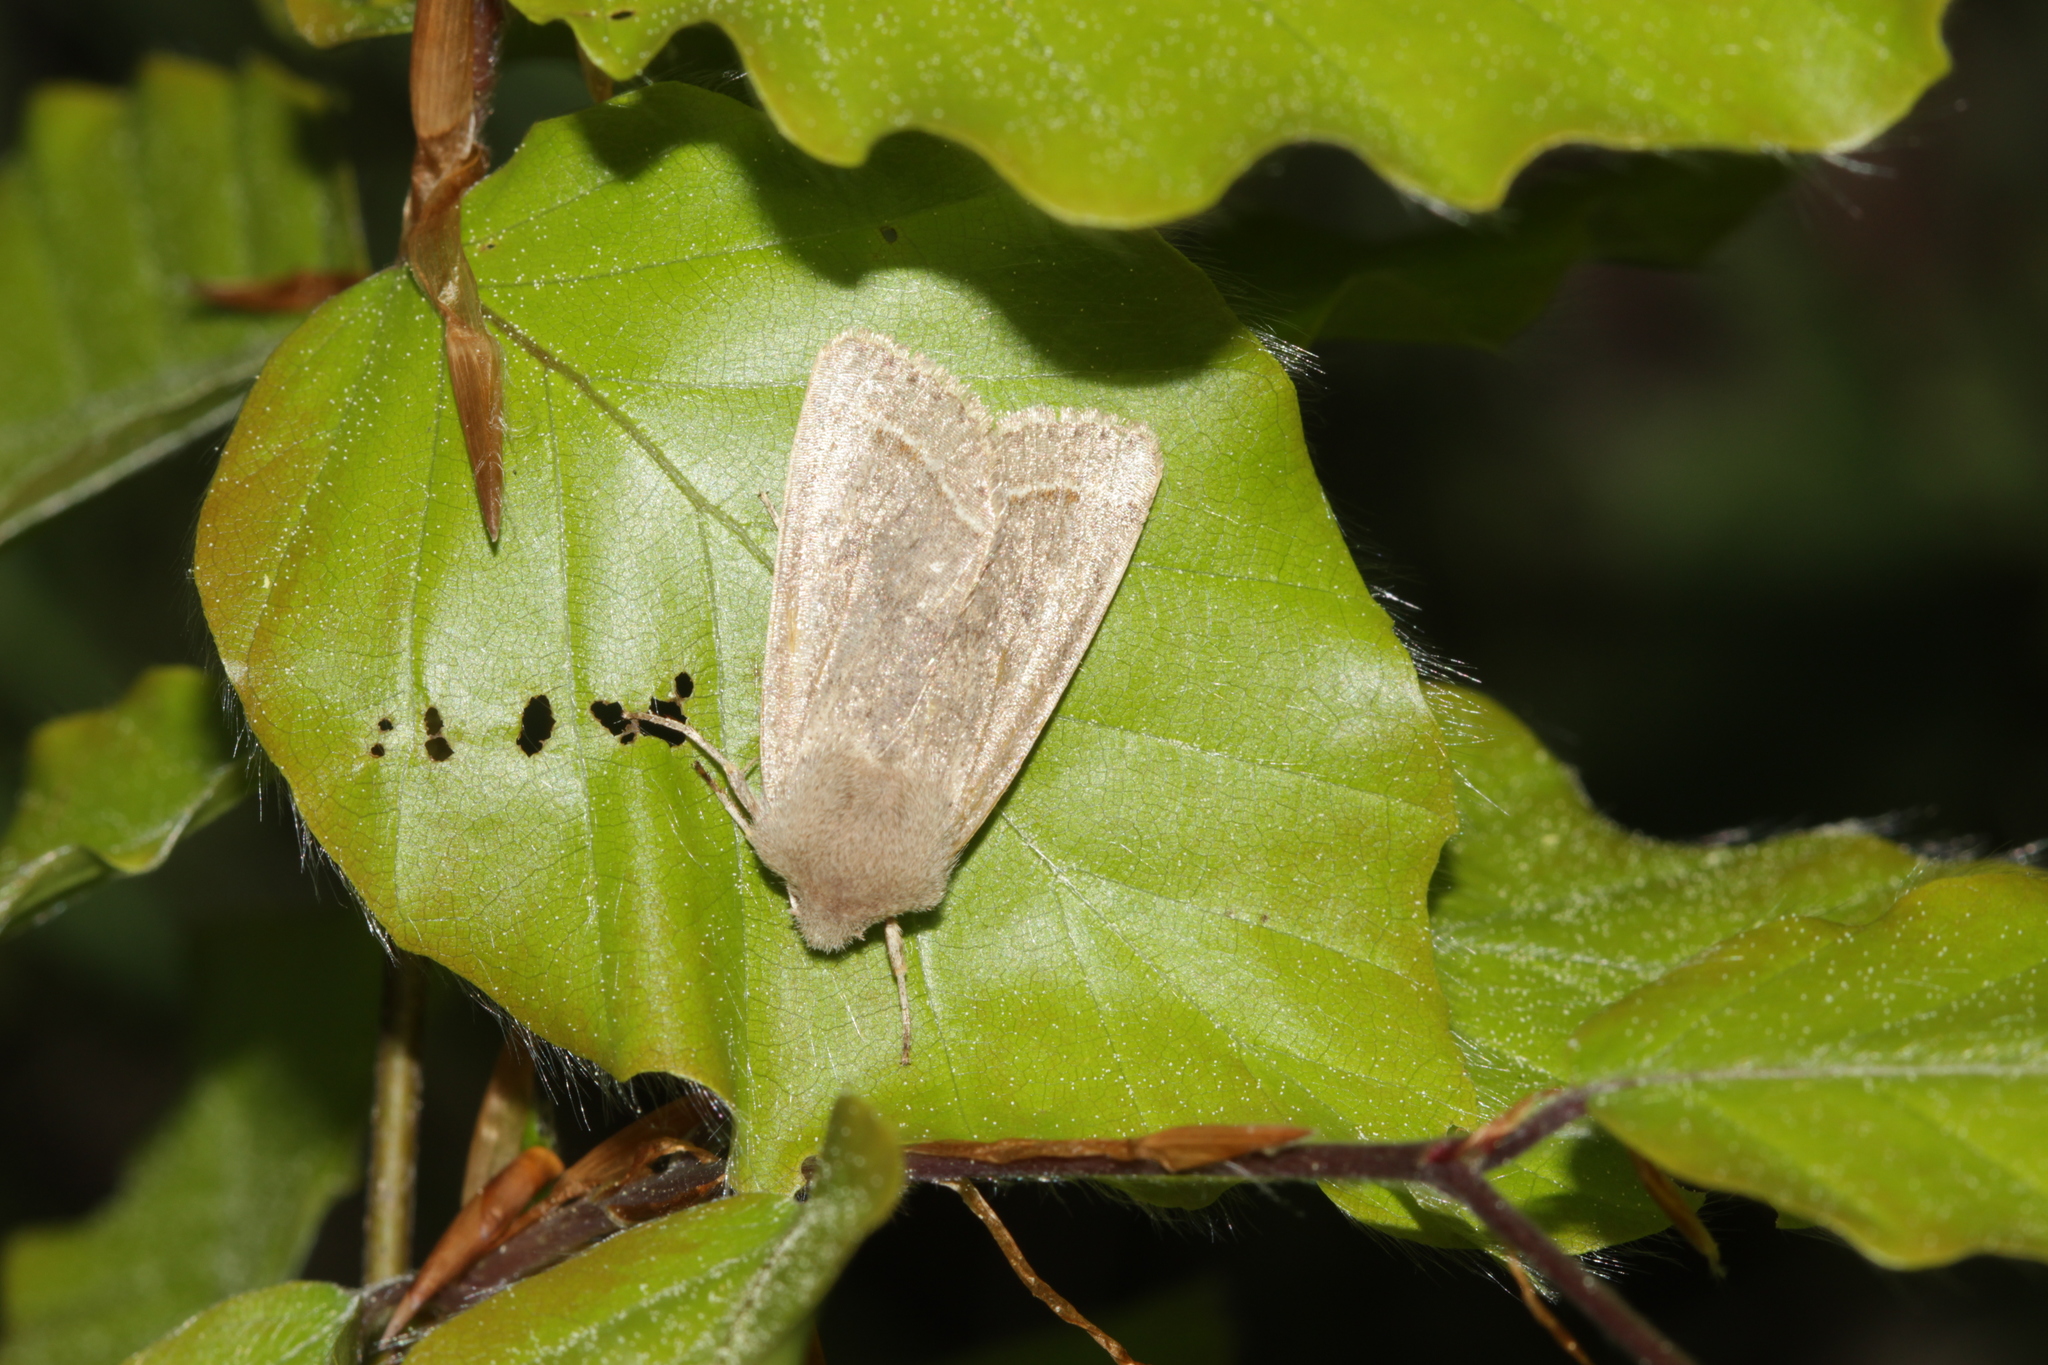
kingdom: Animalia
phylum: Arthropoda
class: Insecta
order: Lepidoptera
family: Noctuidae
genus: Orthosia
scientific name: Orthosia cerasi
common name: Common quaker
